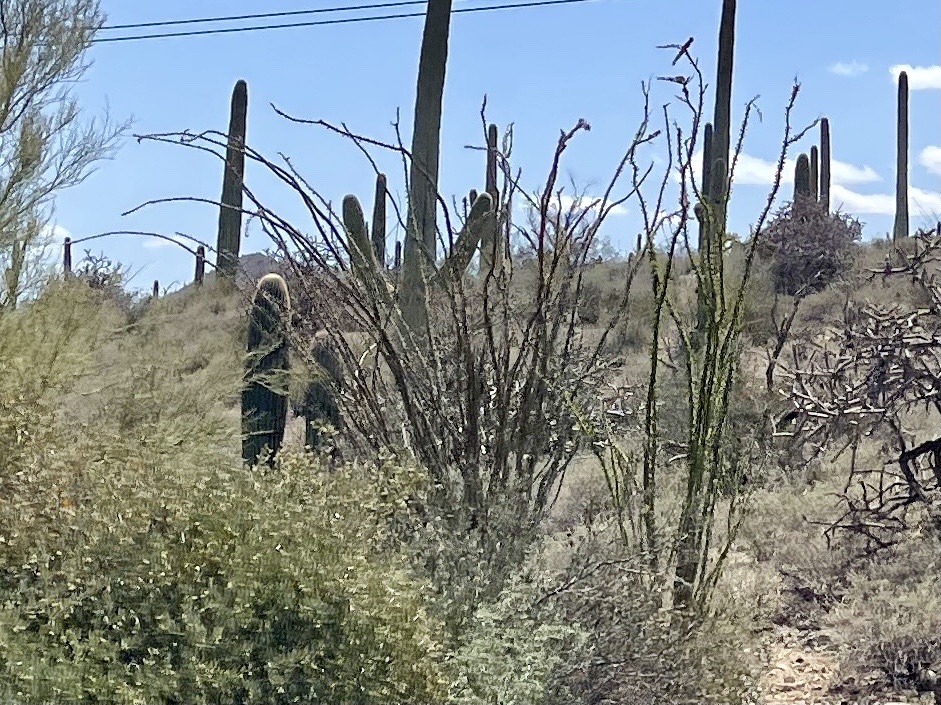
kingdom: Plantae
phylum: Tracheophyta
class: Magnoliopsida
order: Ericales
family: Fouquieriaceae
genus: Fouquieria
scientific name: Fouquieria splendens
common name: Vine-cactus
